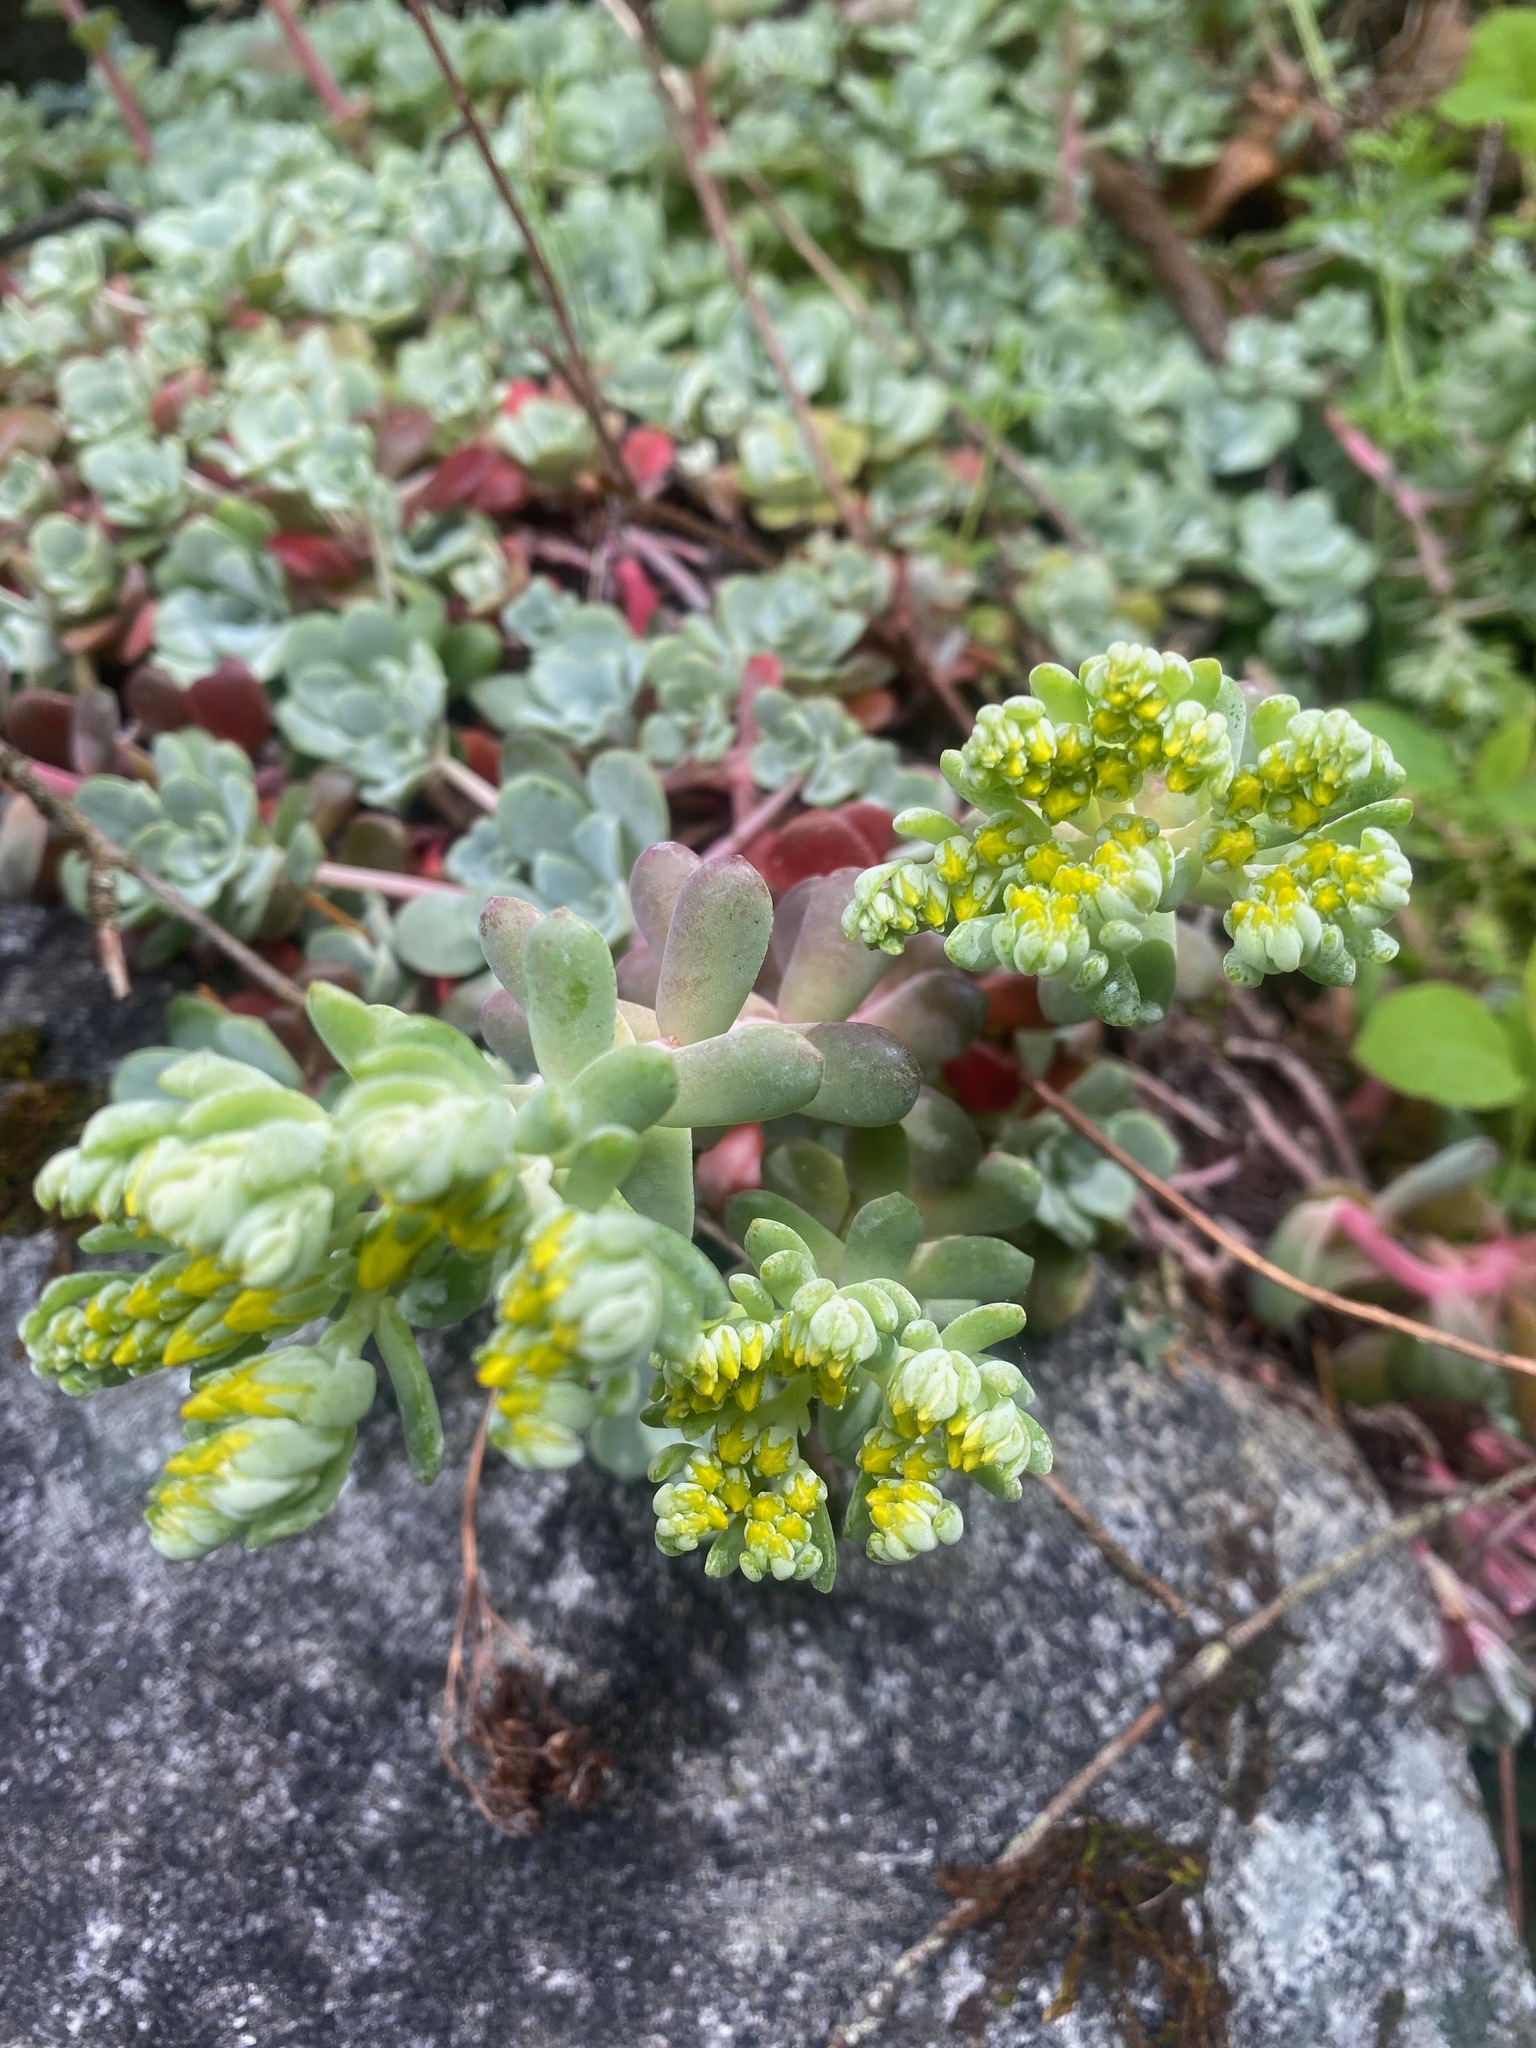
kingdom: Plantae
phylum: Tracheophyta
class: Magnoliopsida
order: Saxifragales
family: Crassulaceae
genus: Sedum
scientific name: Sedum spathulifolium
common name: Colorado stonecrop
